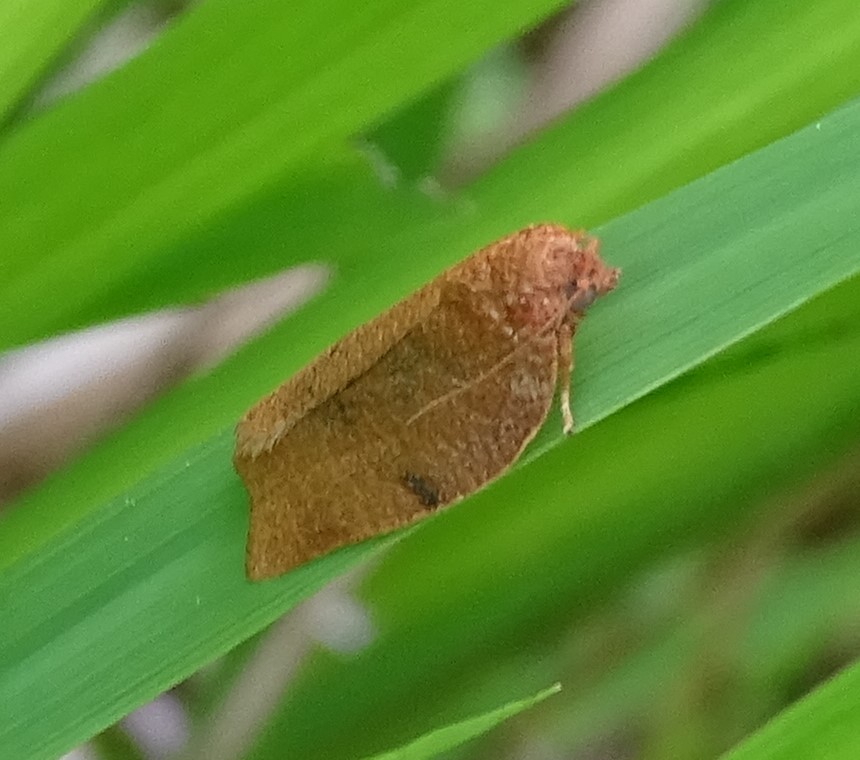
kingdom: Animalia
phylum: Arthropoda
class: Insecta
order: Lepidoptera
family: Tortricidae
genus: Choristoneura
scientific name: Choristoneura obsoletana
